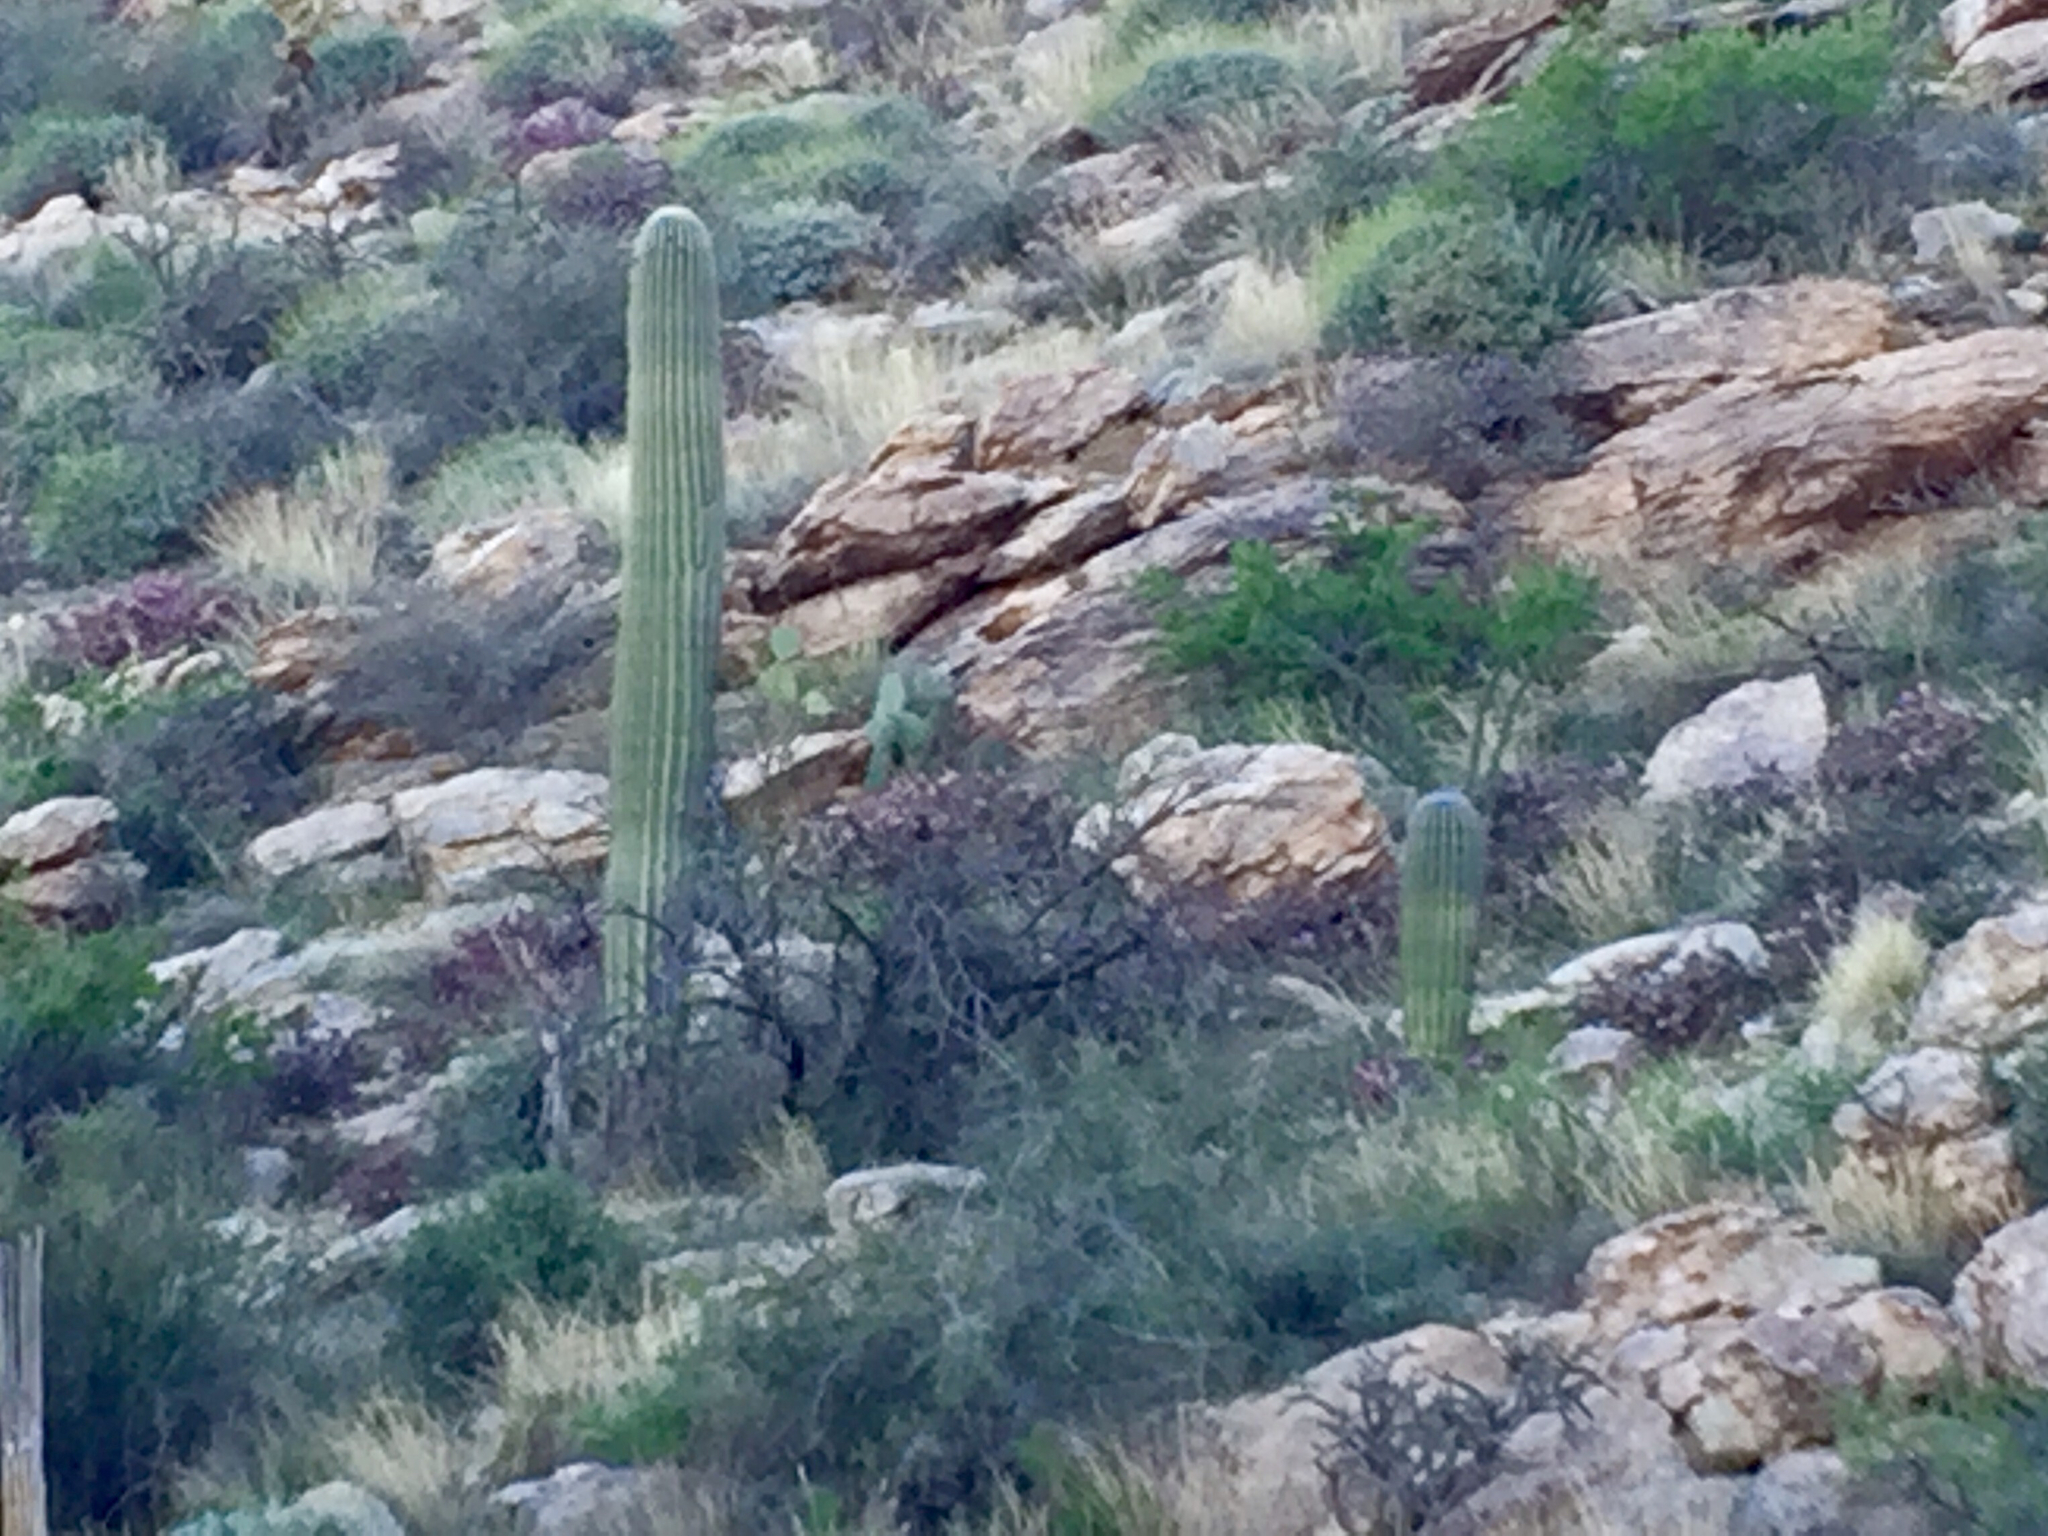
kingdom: Plantae
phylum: Tracheophyta
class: Magnoliopsida
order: Caryophyllales
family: Cactaceae
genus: Carnegiea
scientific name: Carnegiea gigantea
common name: Saguaro
